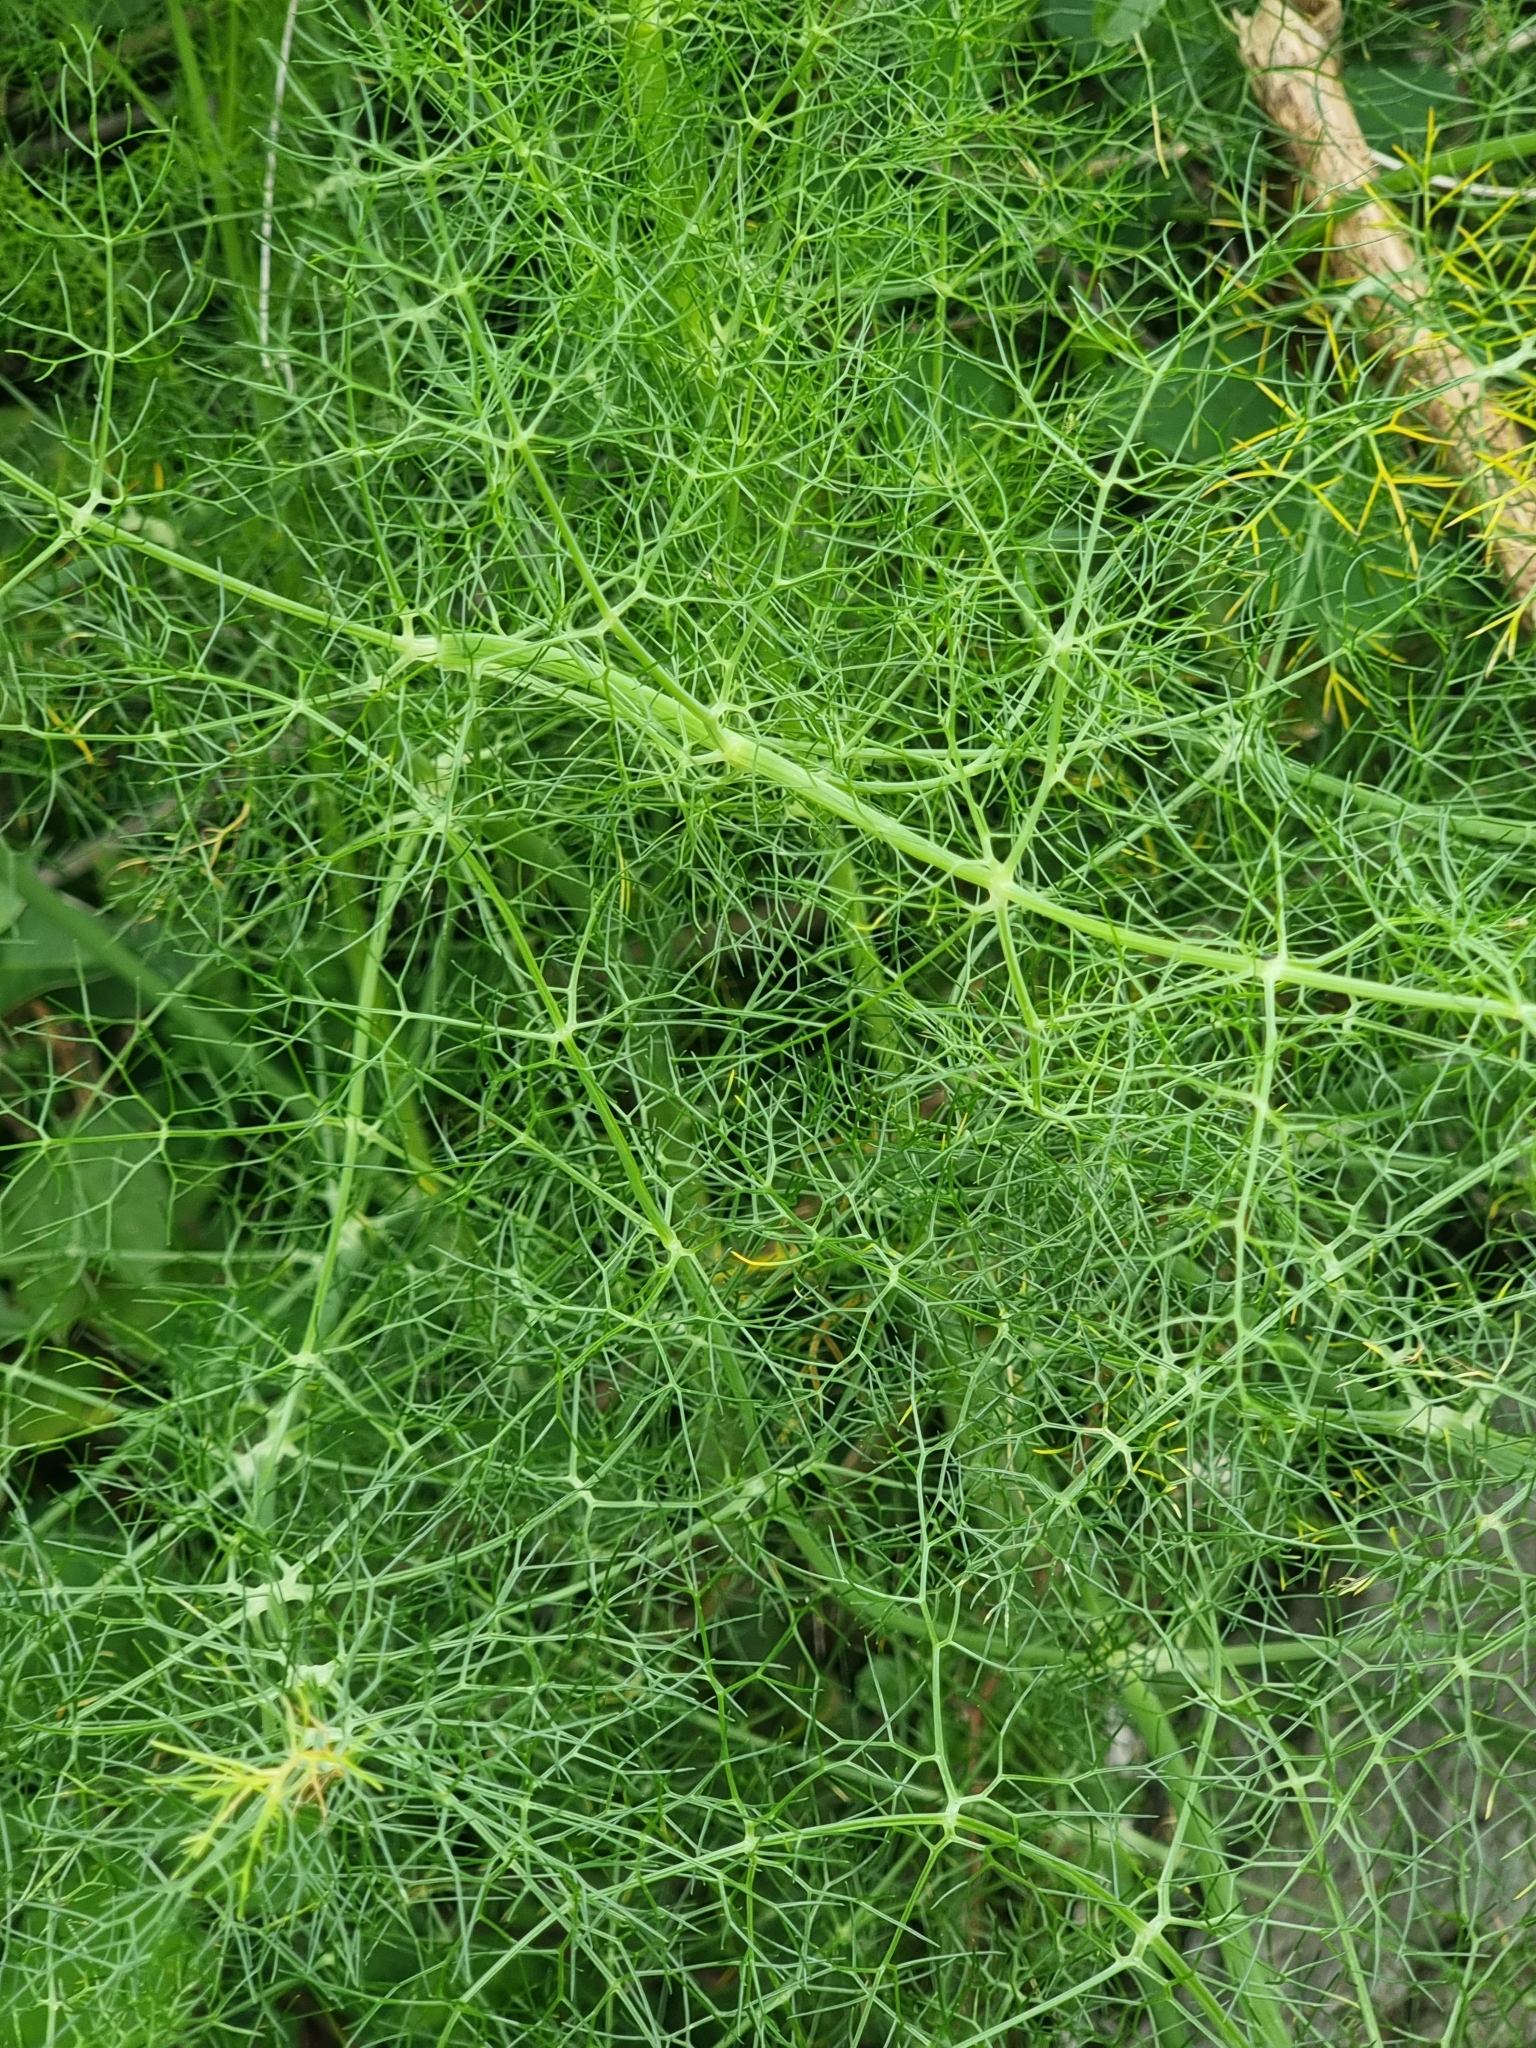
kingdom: Plantae
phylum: Tracheophyta
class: Magnoliopsida
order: Apiales
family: Apiaceae
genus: Foeniculum
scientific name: Foeniculum vulgare
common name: Fennel
